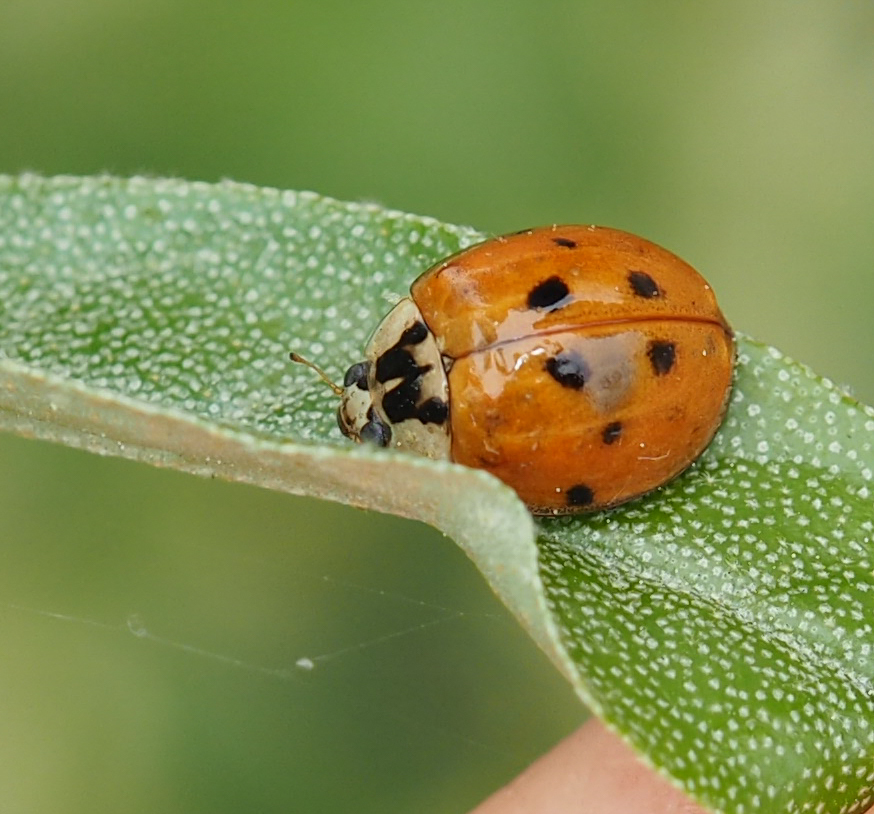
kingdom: Animalia
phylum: Arthropoda
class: Insecta
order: Coleoptera
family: Coccinellidae
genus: Harmonia
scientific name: Harmonia axyridis
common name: Harlequin ladybird
